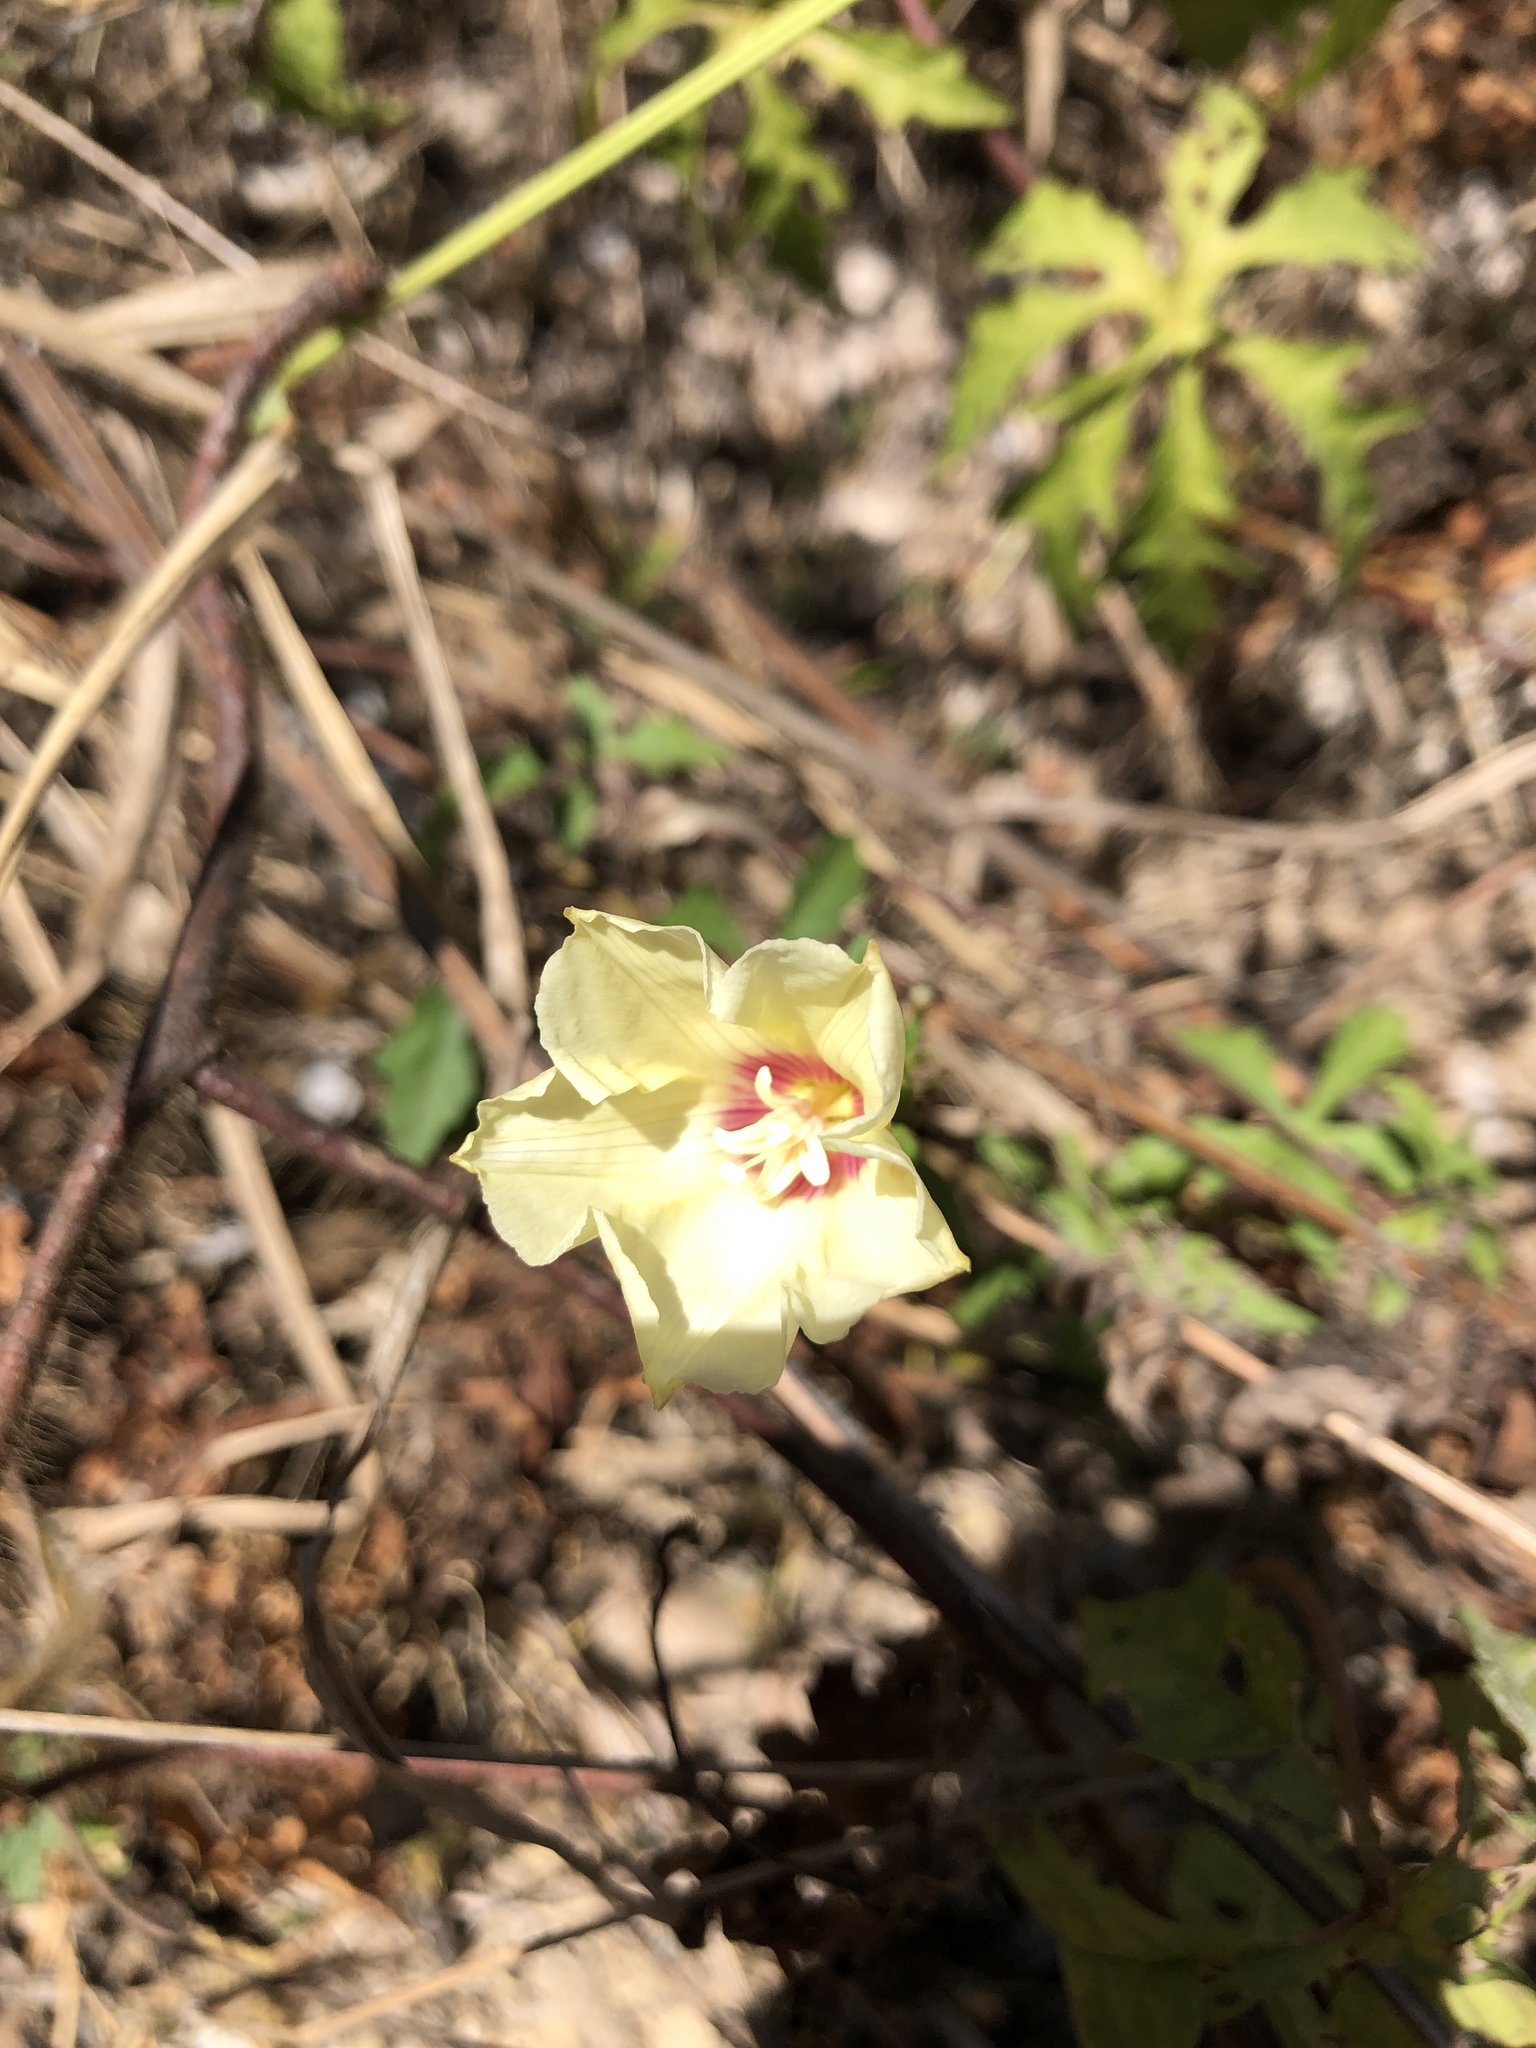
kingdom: Plantae
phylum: Tracheophyta
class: Magnoliopsida
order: Solanales
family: Convolvulaceae
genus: Distimake
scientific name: Distimake dissectus
